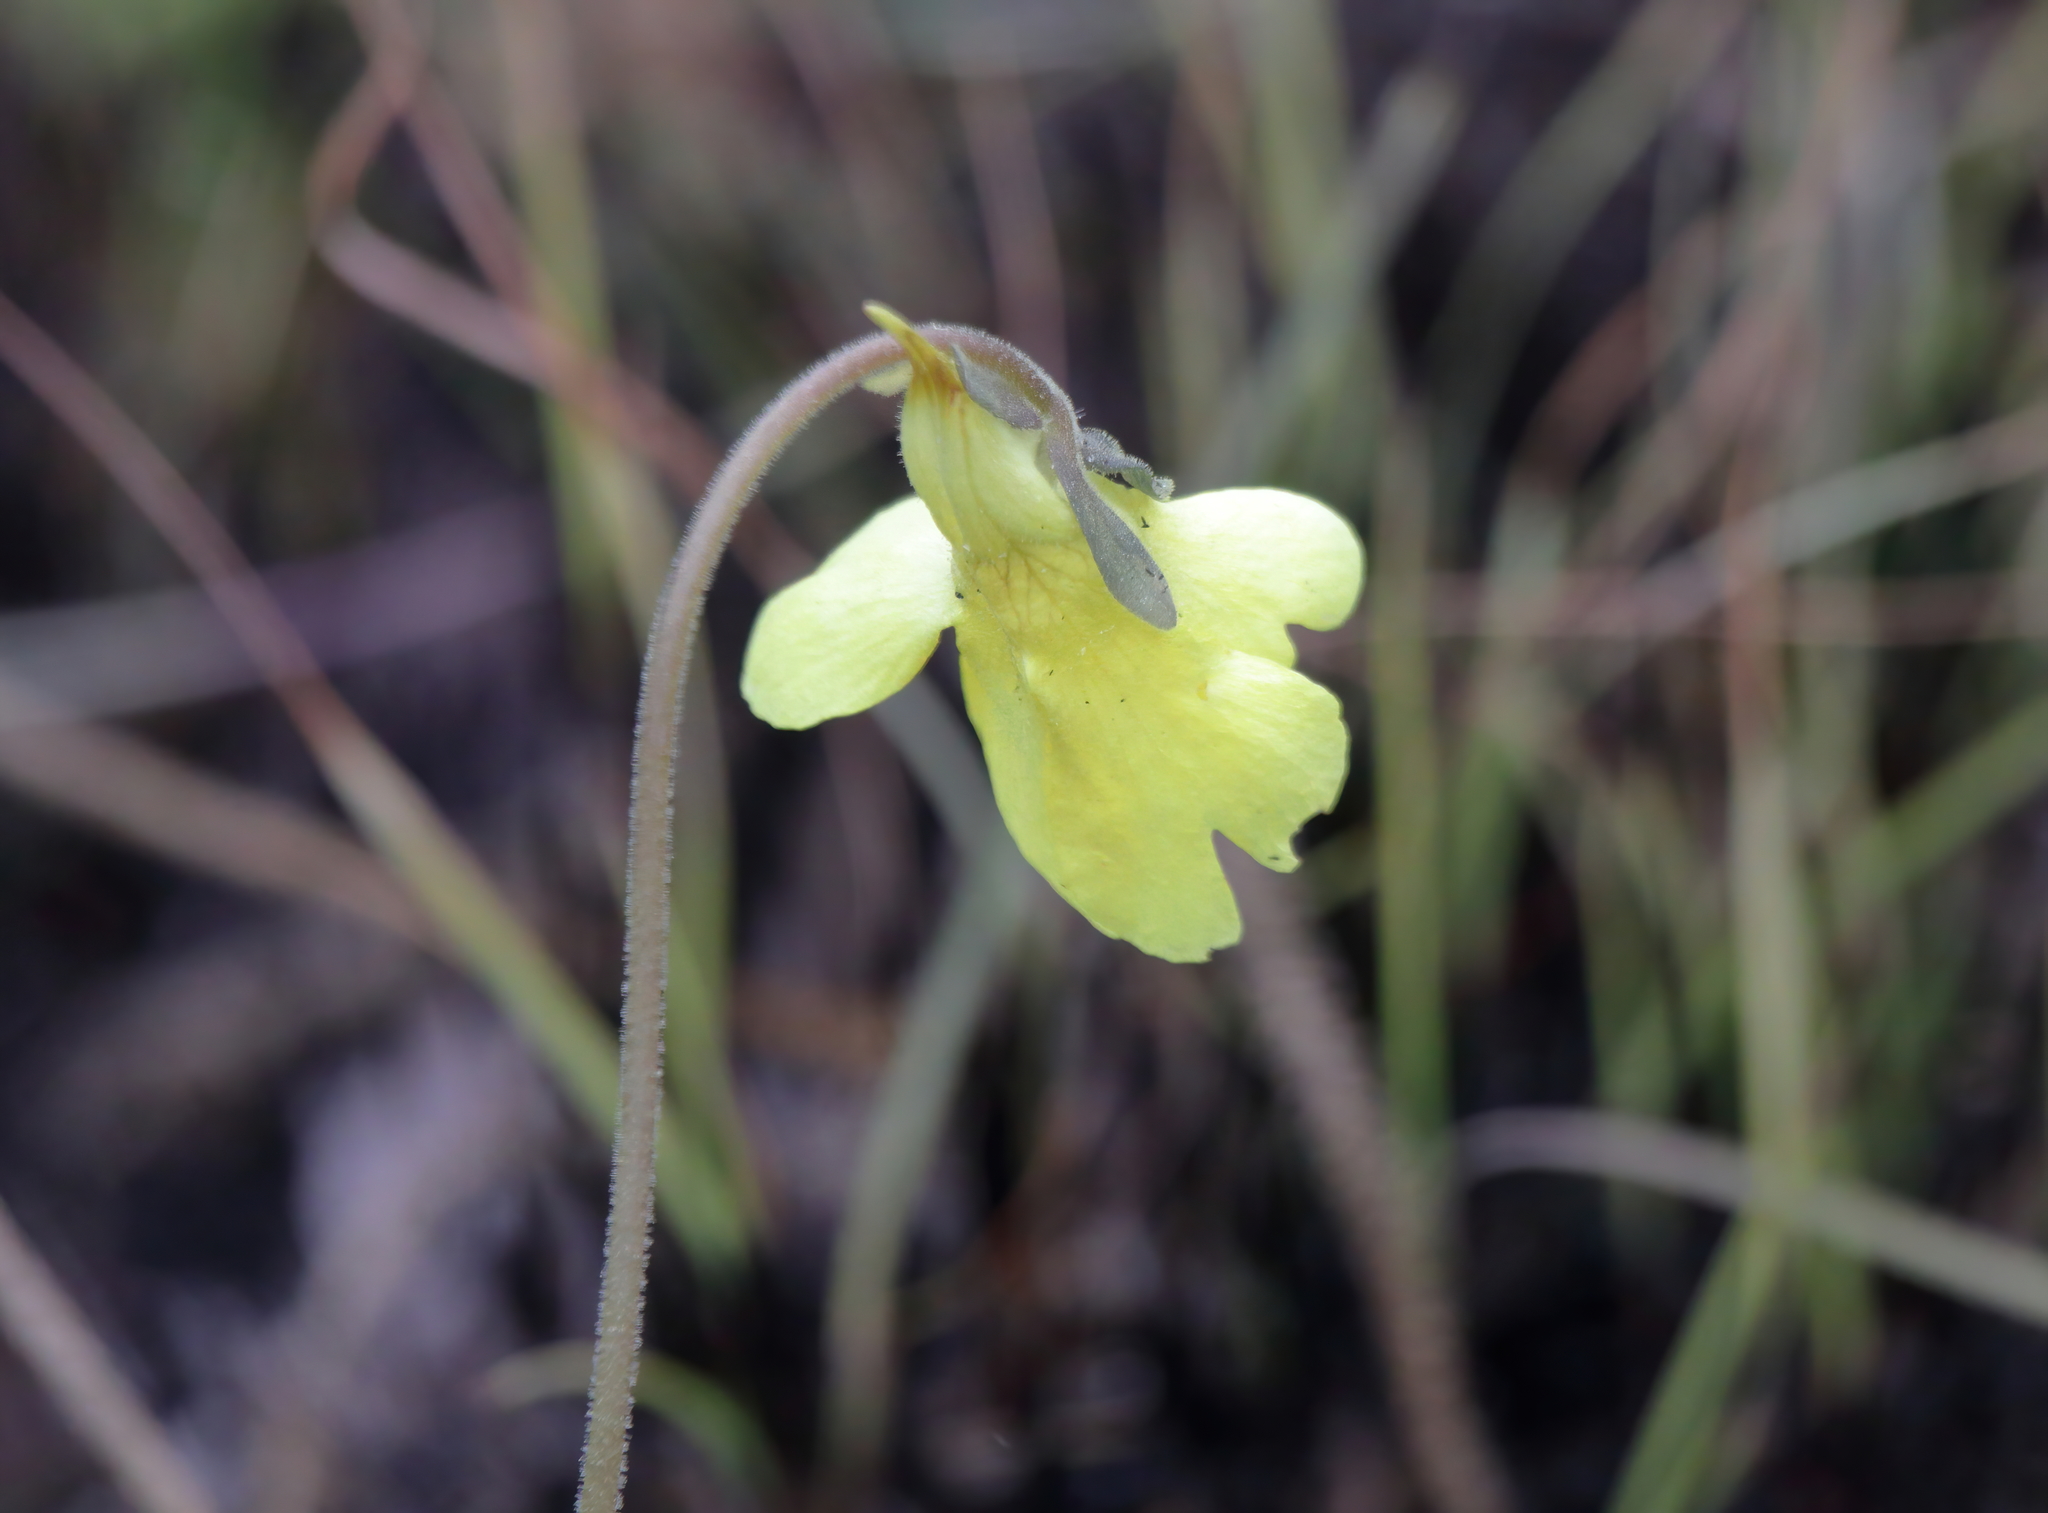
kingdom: Plantae
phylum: Tracheophyta
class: Magnoliopsida
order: Lamiales
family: Lentibulariaceae
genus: Pinguicula
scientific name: Pinguicula lutea
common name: Yellow butterwort
